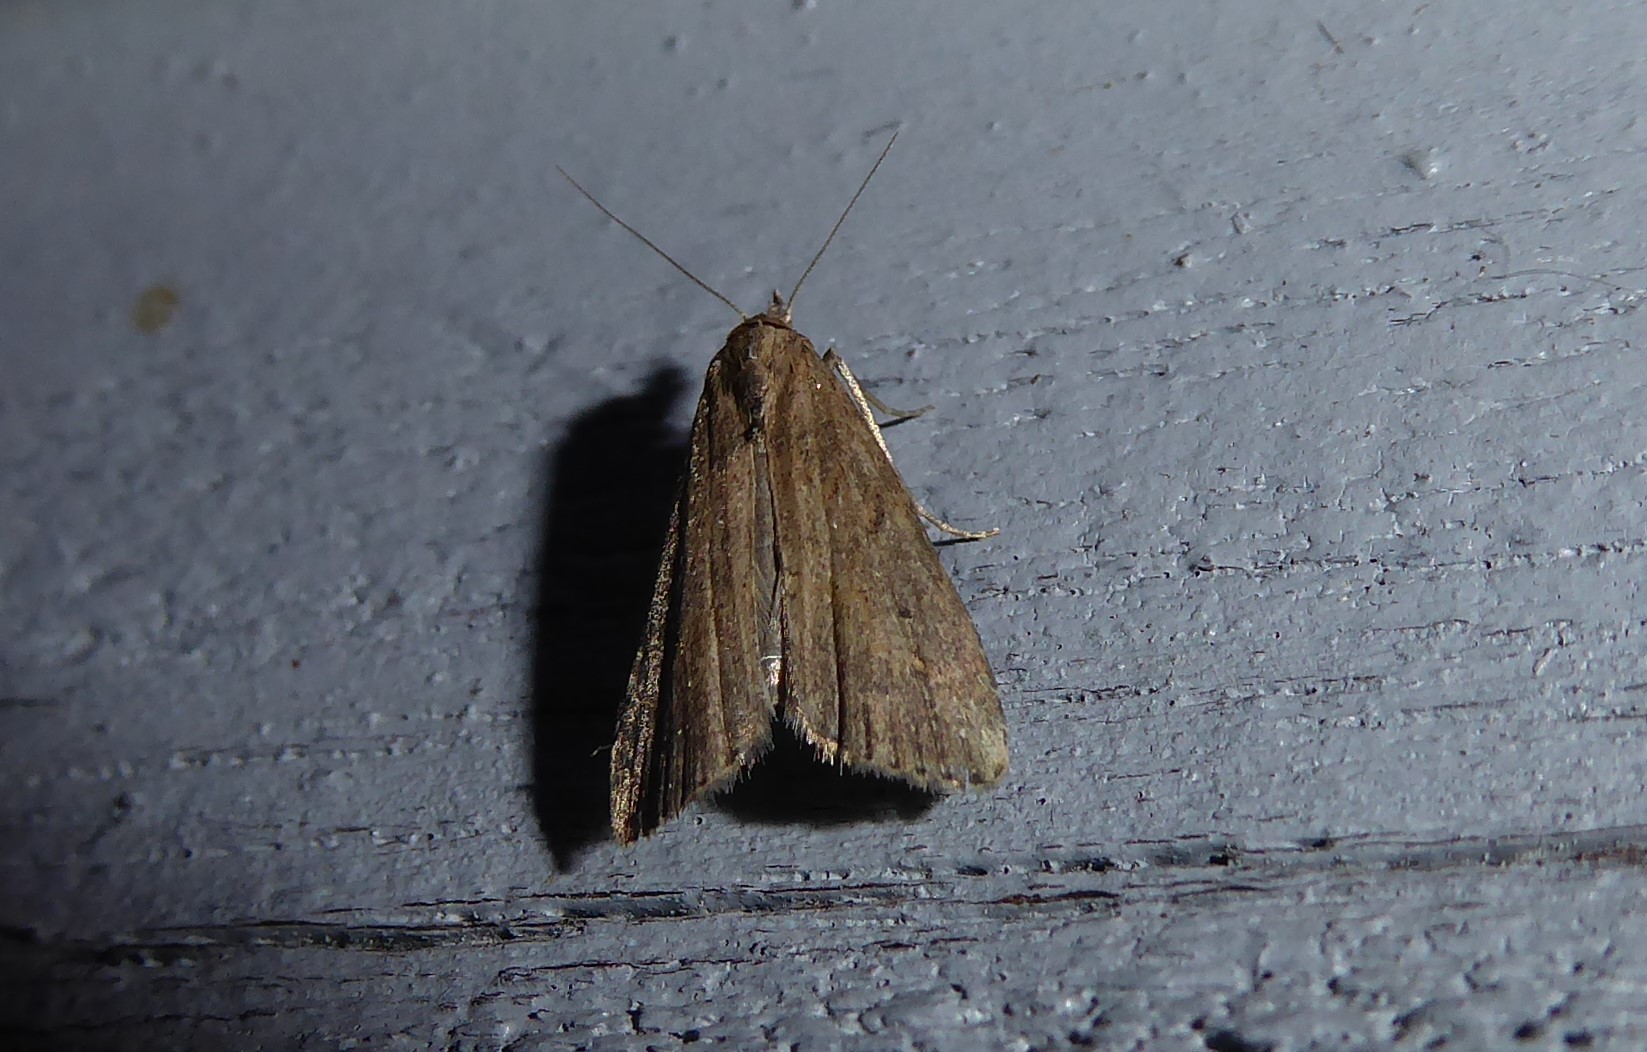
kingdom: Animalia
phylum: Arthropoda
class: Insecta
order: Lepidoptera
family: Erebidae
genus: Schrankia
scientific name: Schrankia costaestrigalis
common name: Pinion-streaked snout
